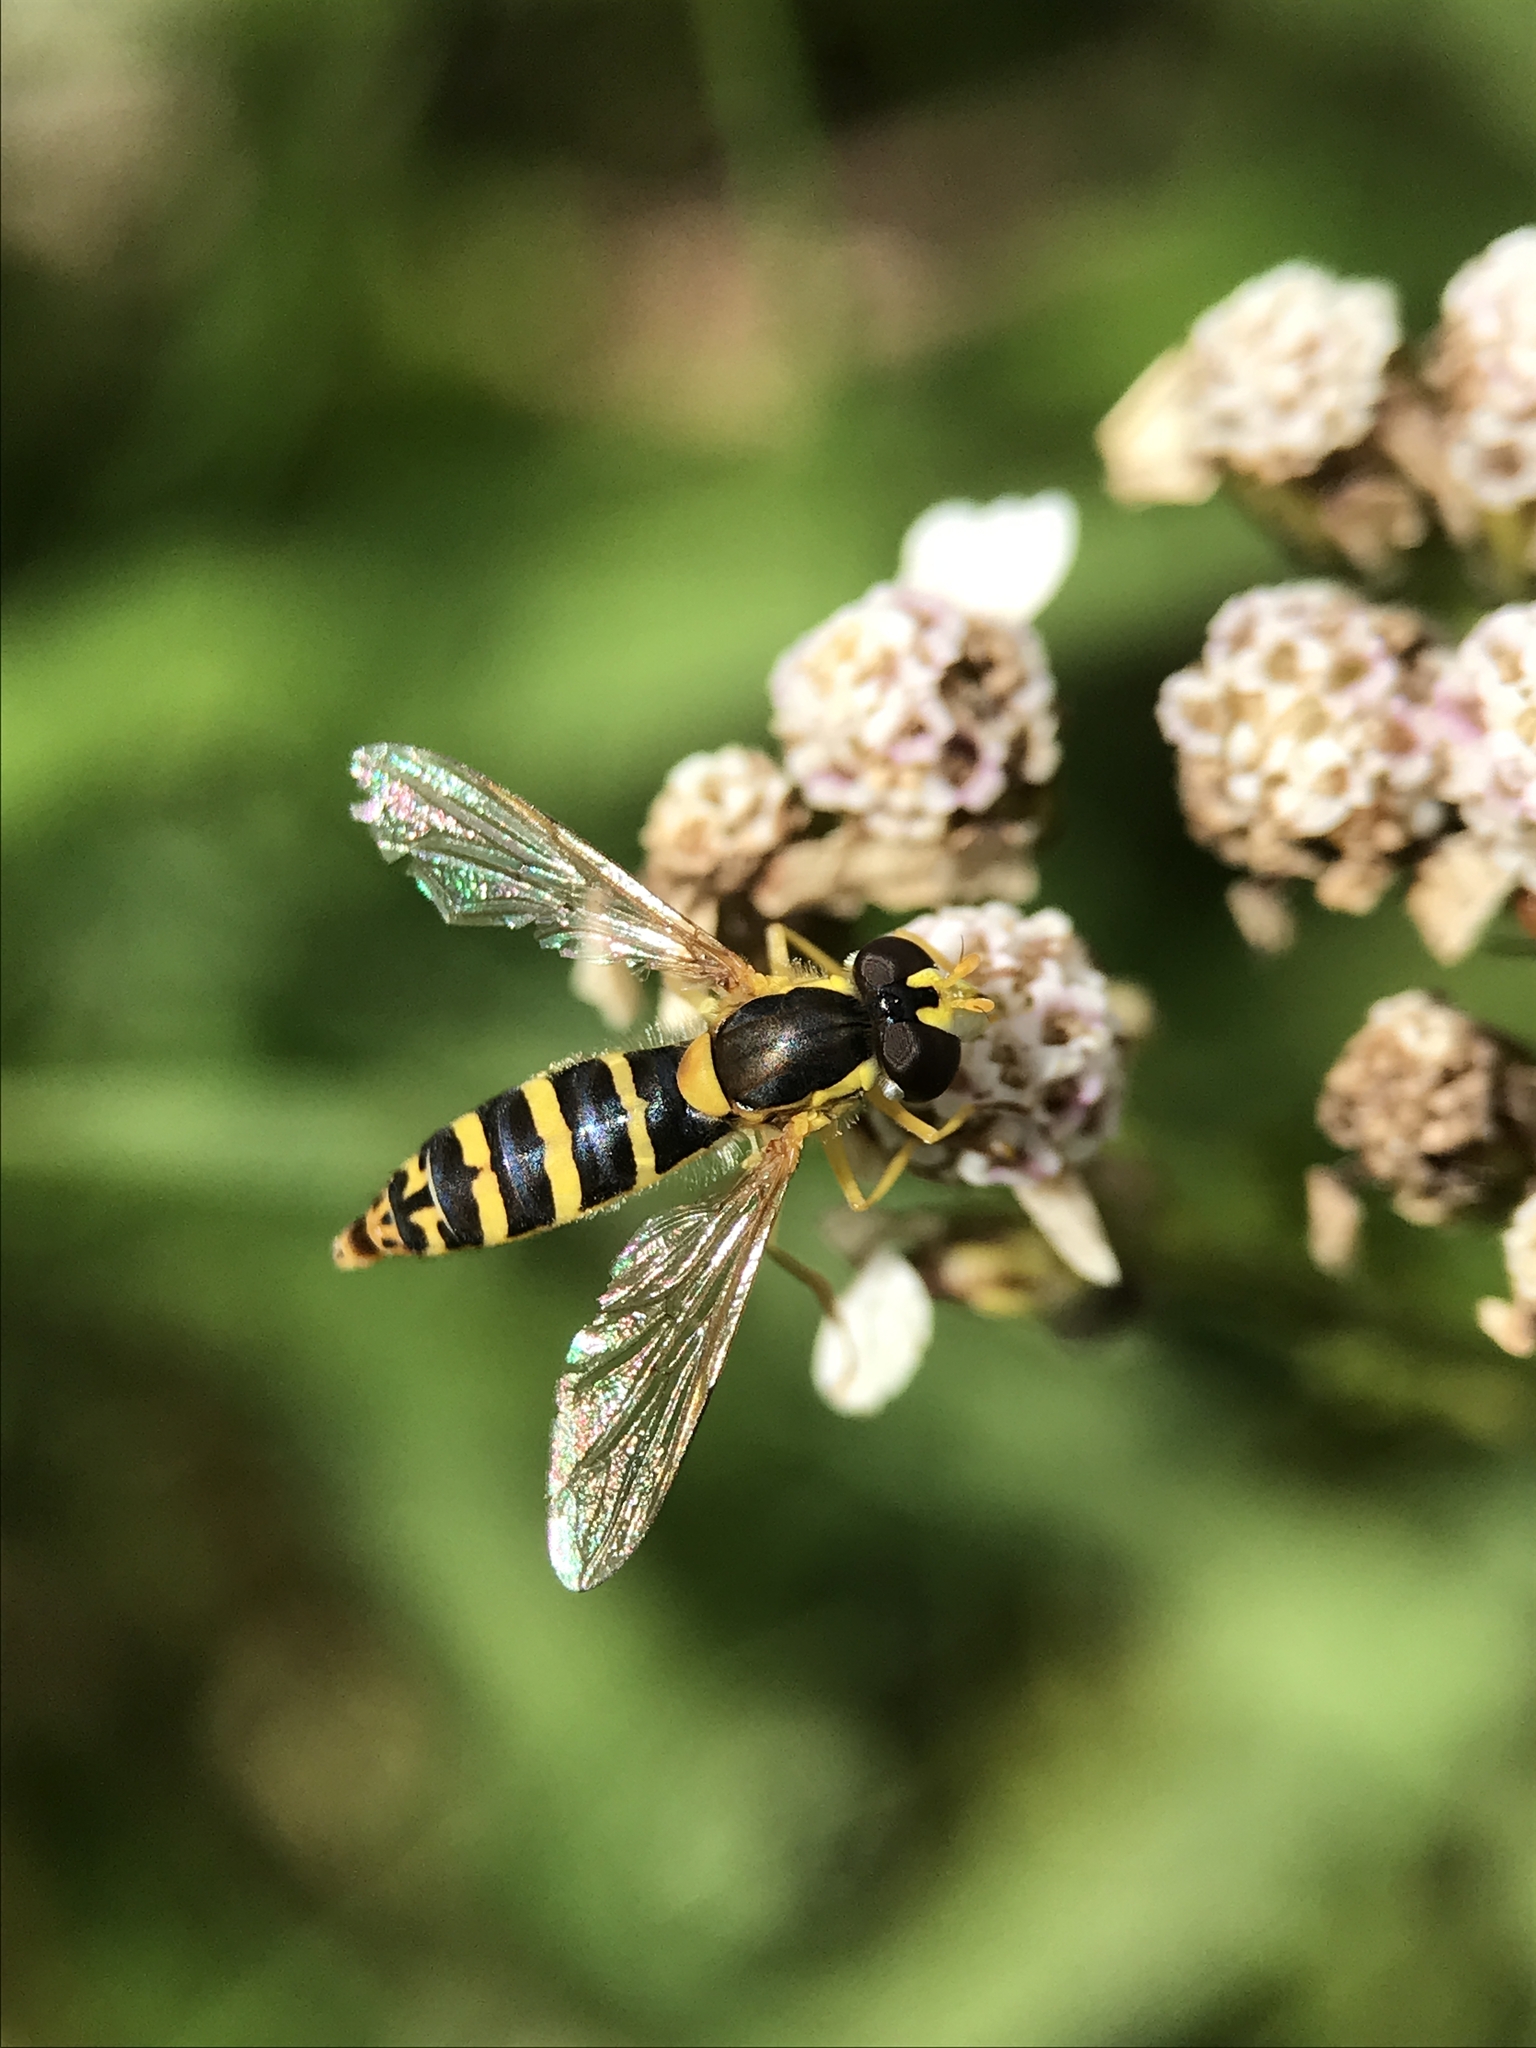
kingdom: Animalia
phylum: Arthropoda
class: Insecta
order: Diptera
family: Syrphidae
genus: Sphaerophoria
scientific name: Sphaerophoria
